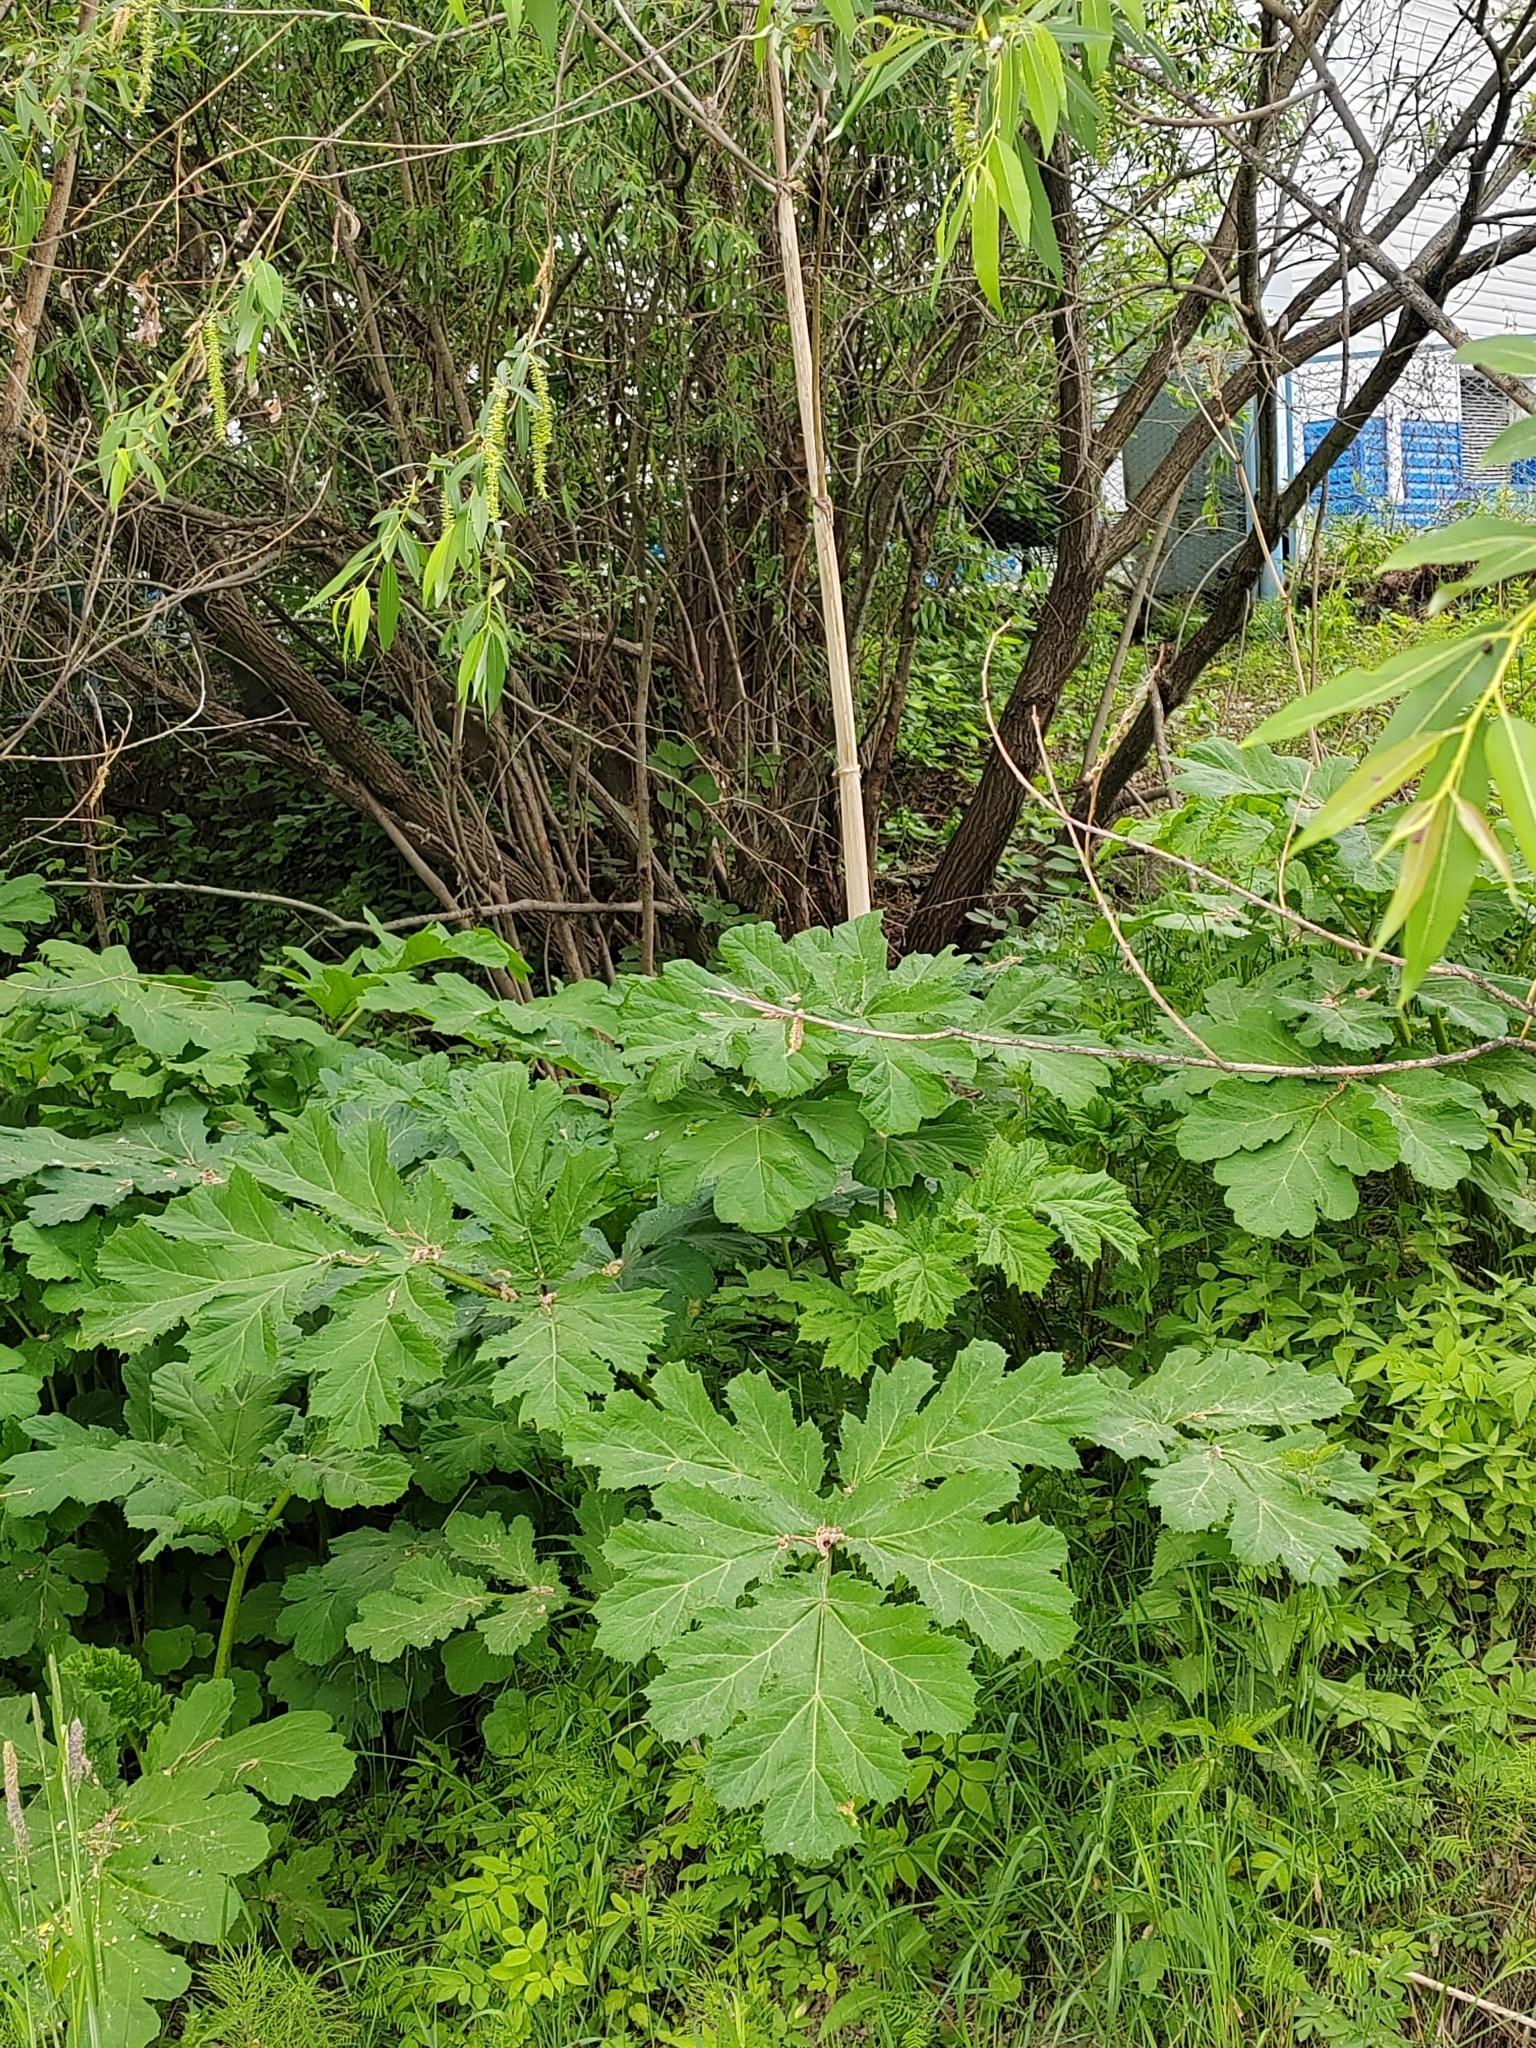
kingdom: Plantae
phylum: Tracheophyta
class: Magnoliopsida
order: Apiales
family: Apiaceae
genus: Heracleum
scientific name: Heracleum sosnowskyi
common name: Sosnowsky's hogweed
